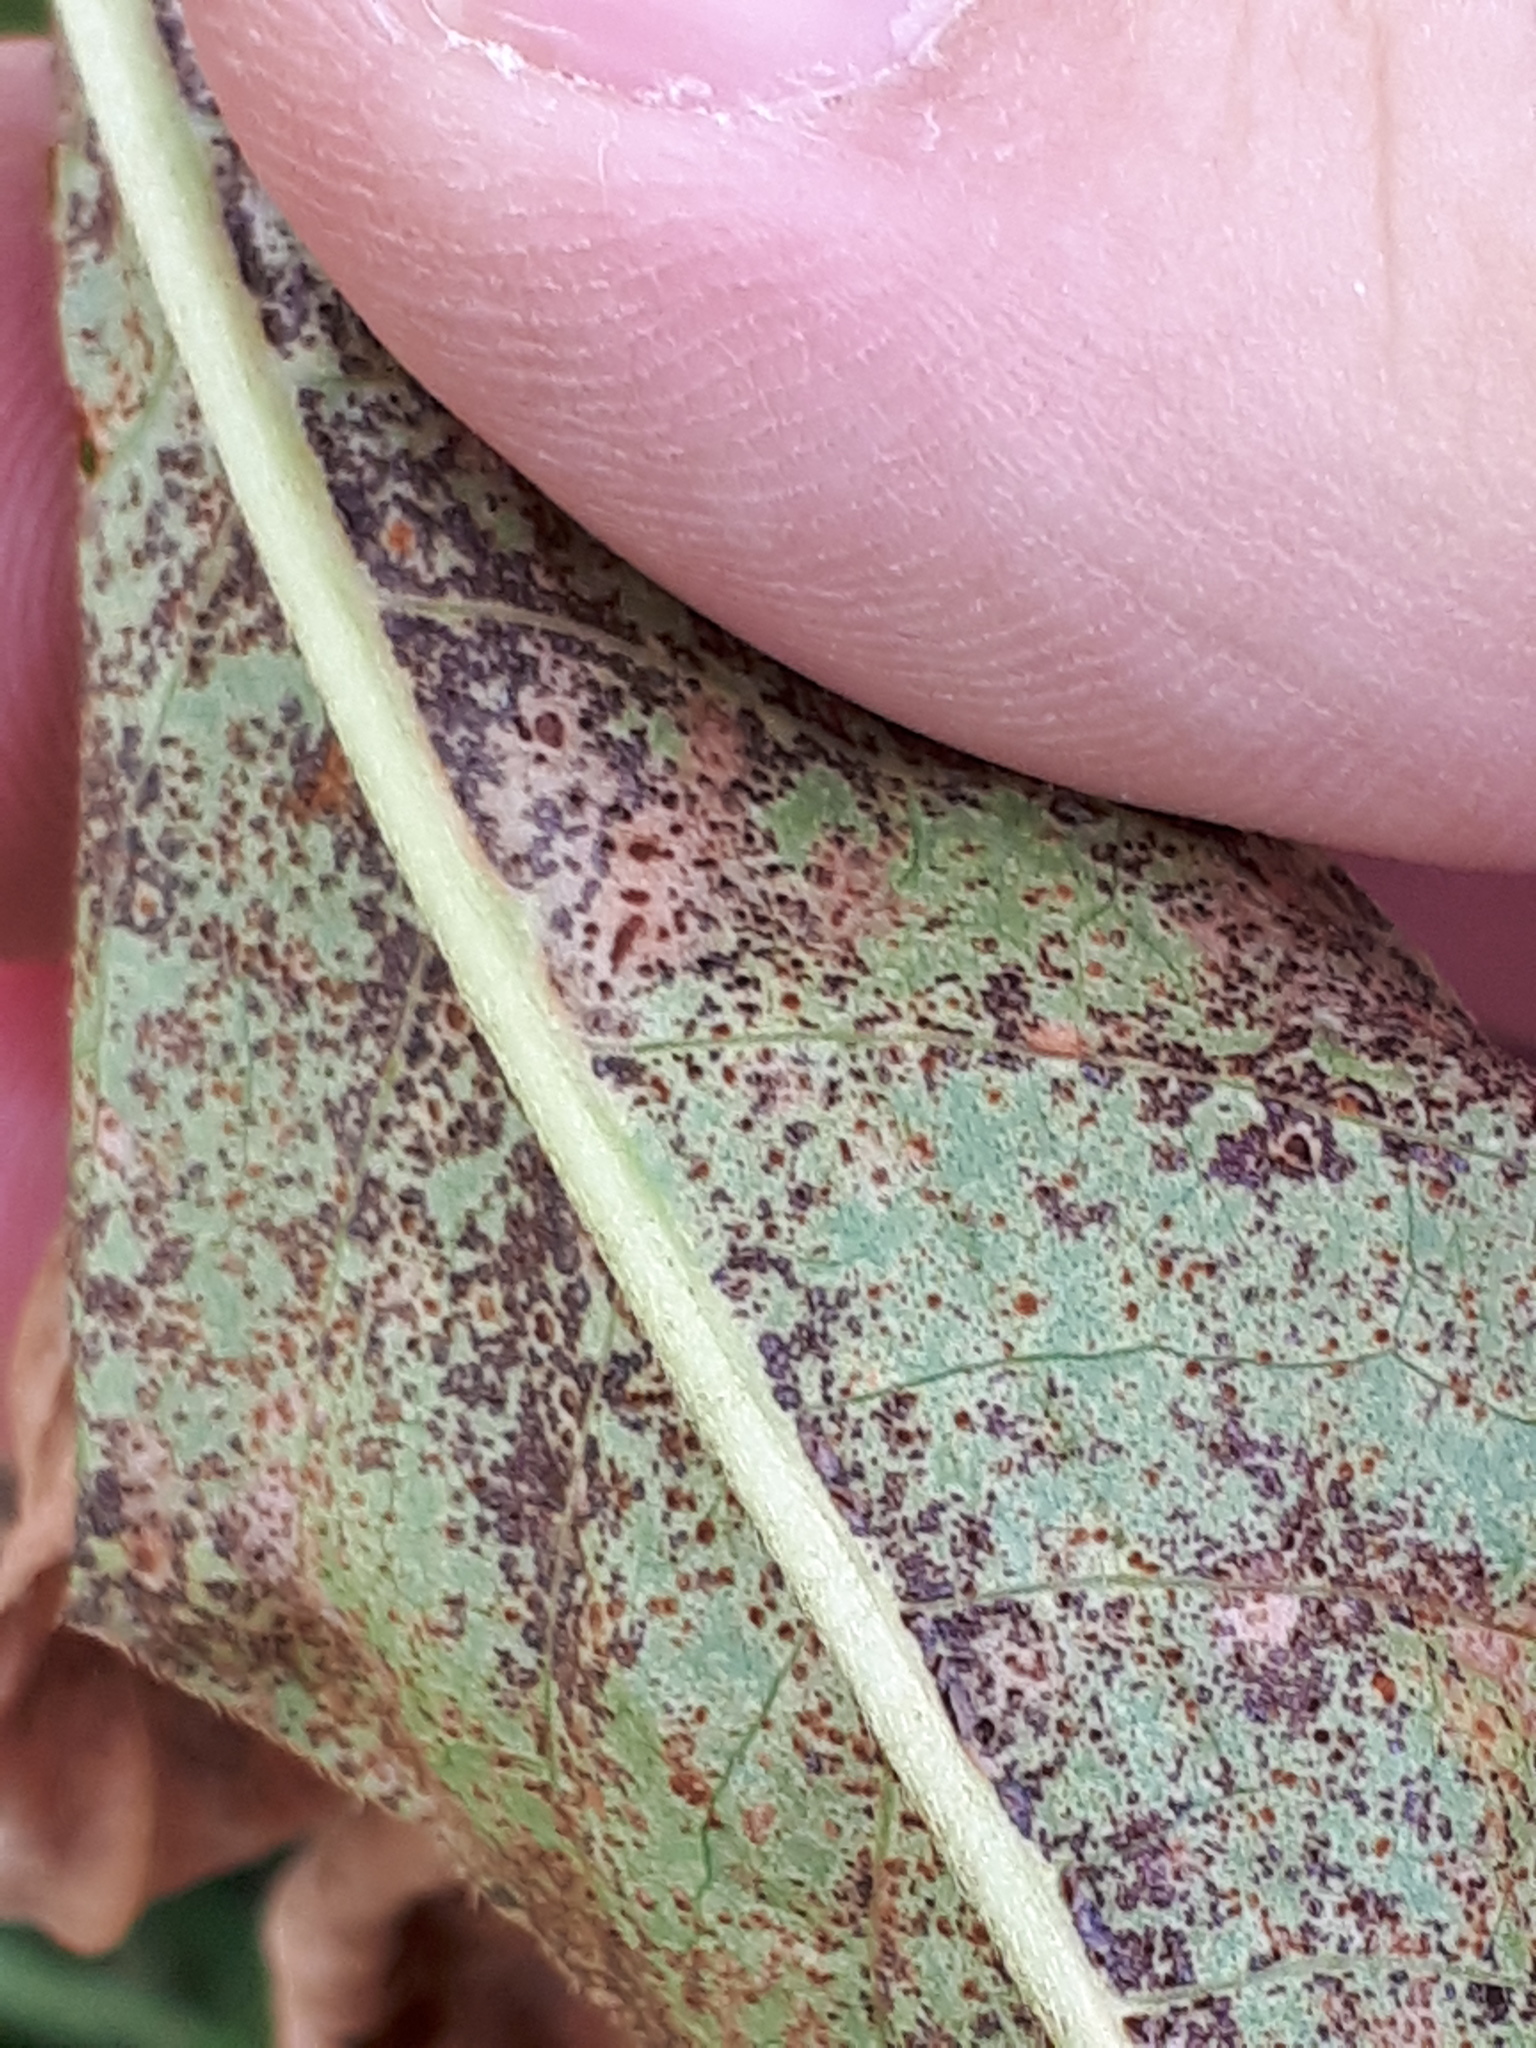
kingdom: Fungi
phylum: Basidiomycota
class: Pucciniomycetes
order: Pucciniales
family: Pucciniaceae
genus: Puccinia
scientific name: Puccinia polygoni-amphibii
